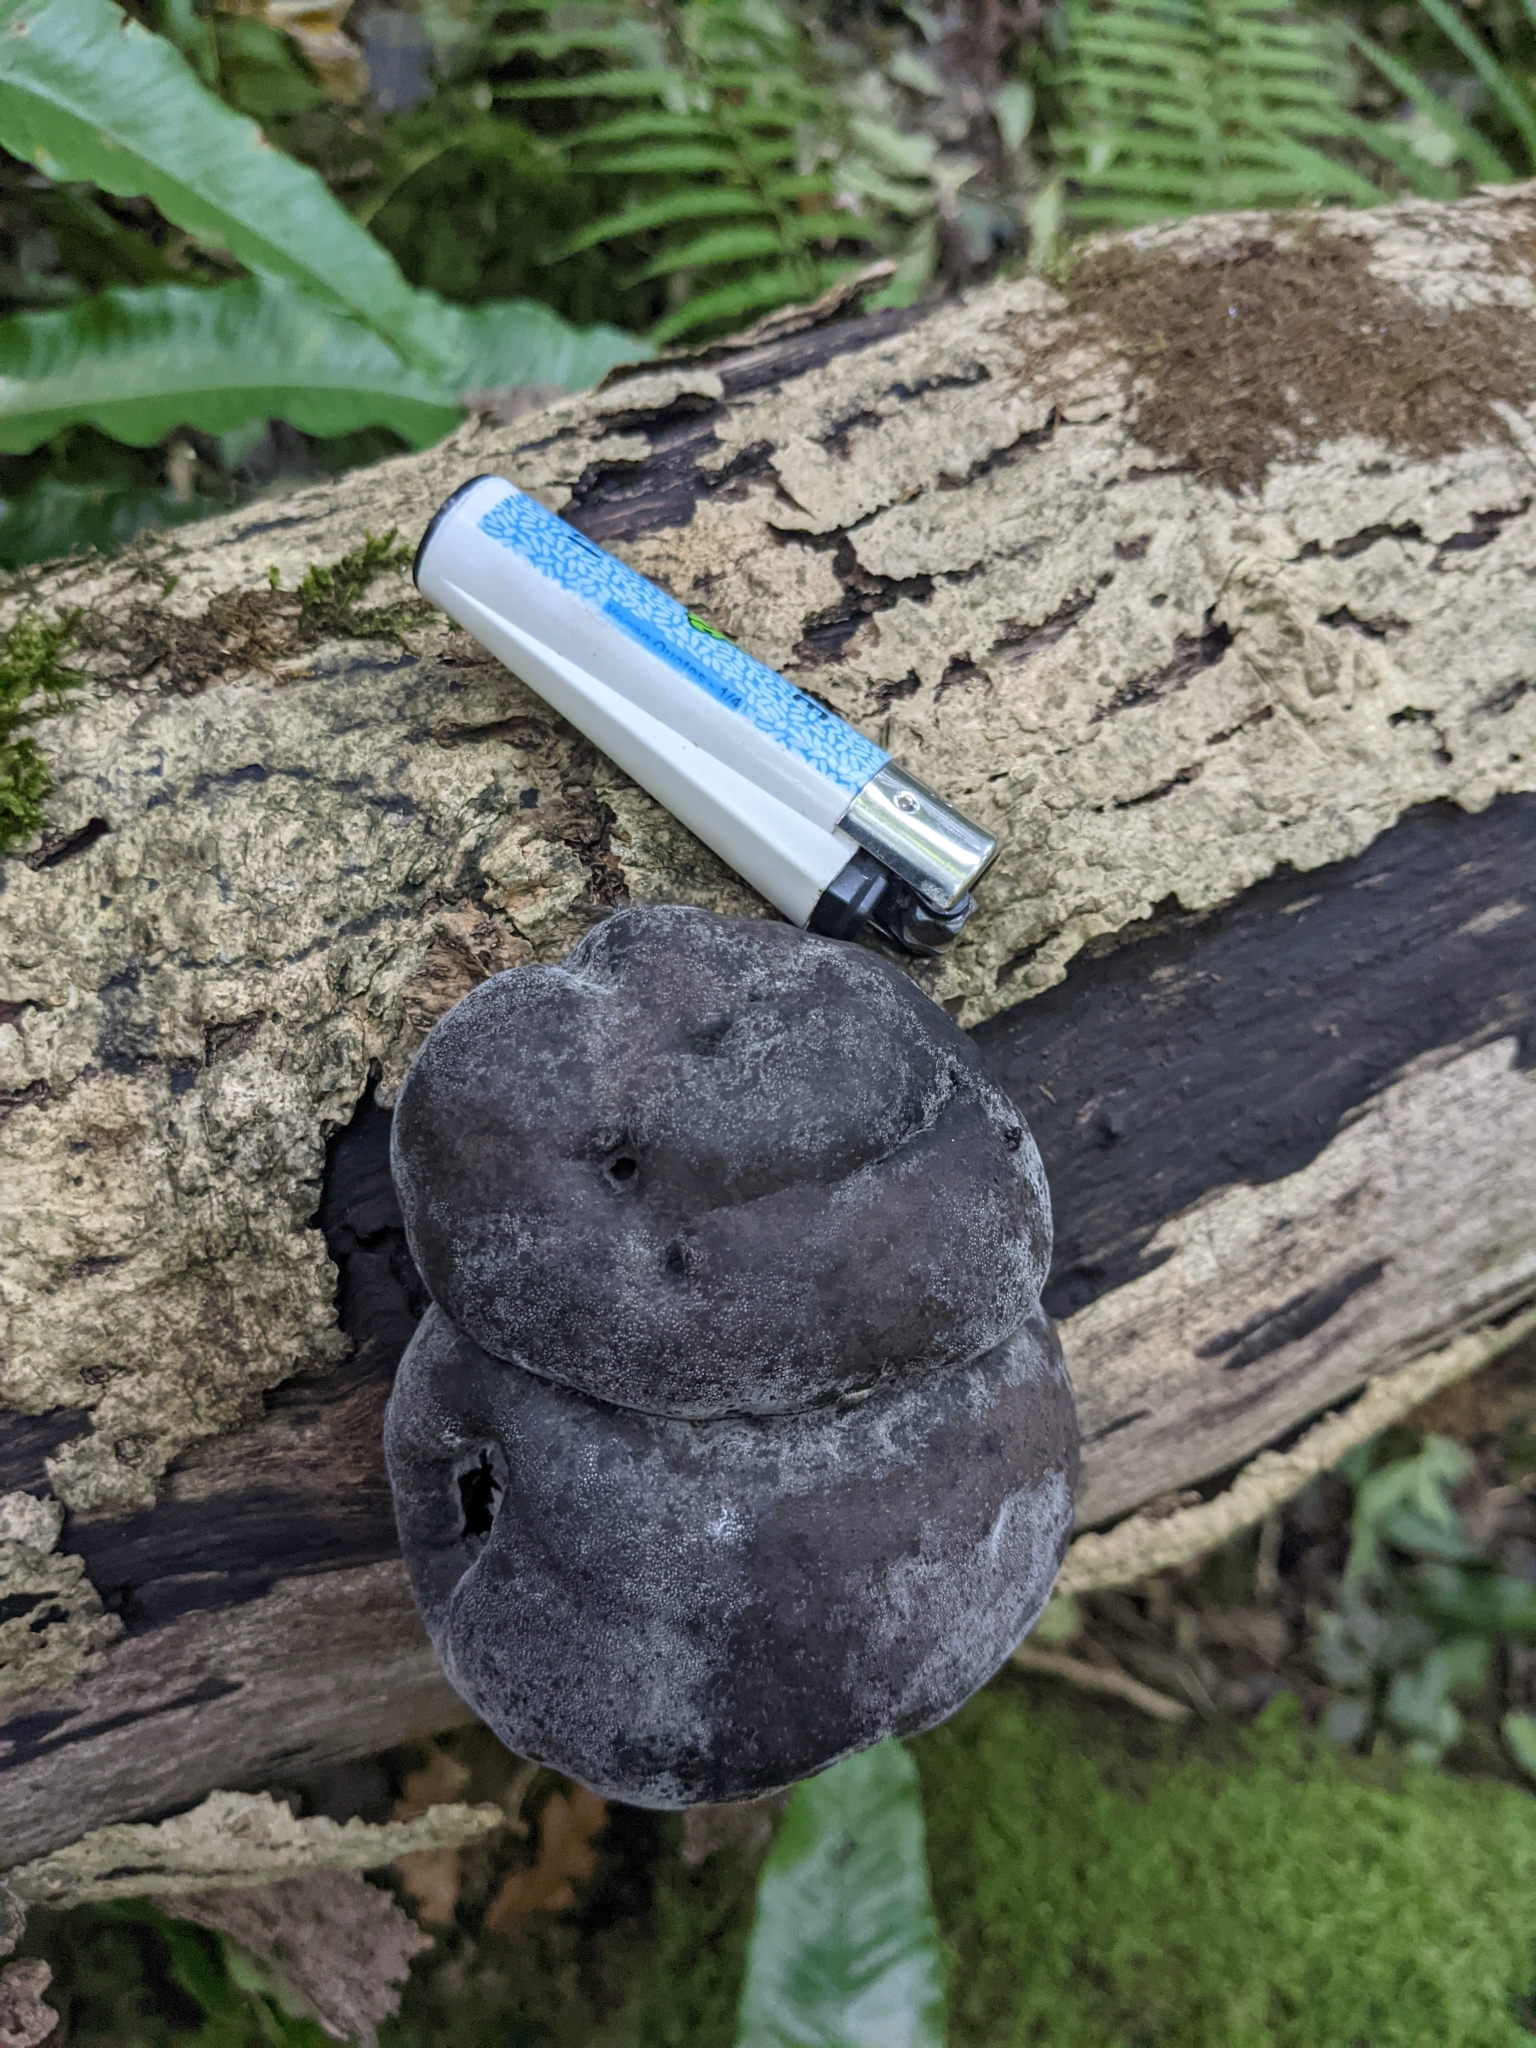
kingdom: Fungi
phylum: Ascomycota
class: Sordariomycetes
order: Xylariales
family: Hypoxylaceae
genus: Daldinia
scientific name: Daldinia concentrica
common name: Cramp balls
